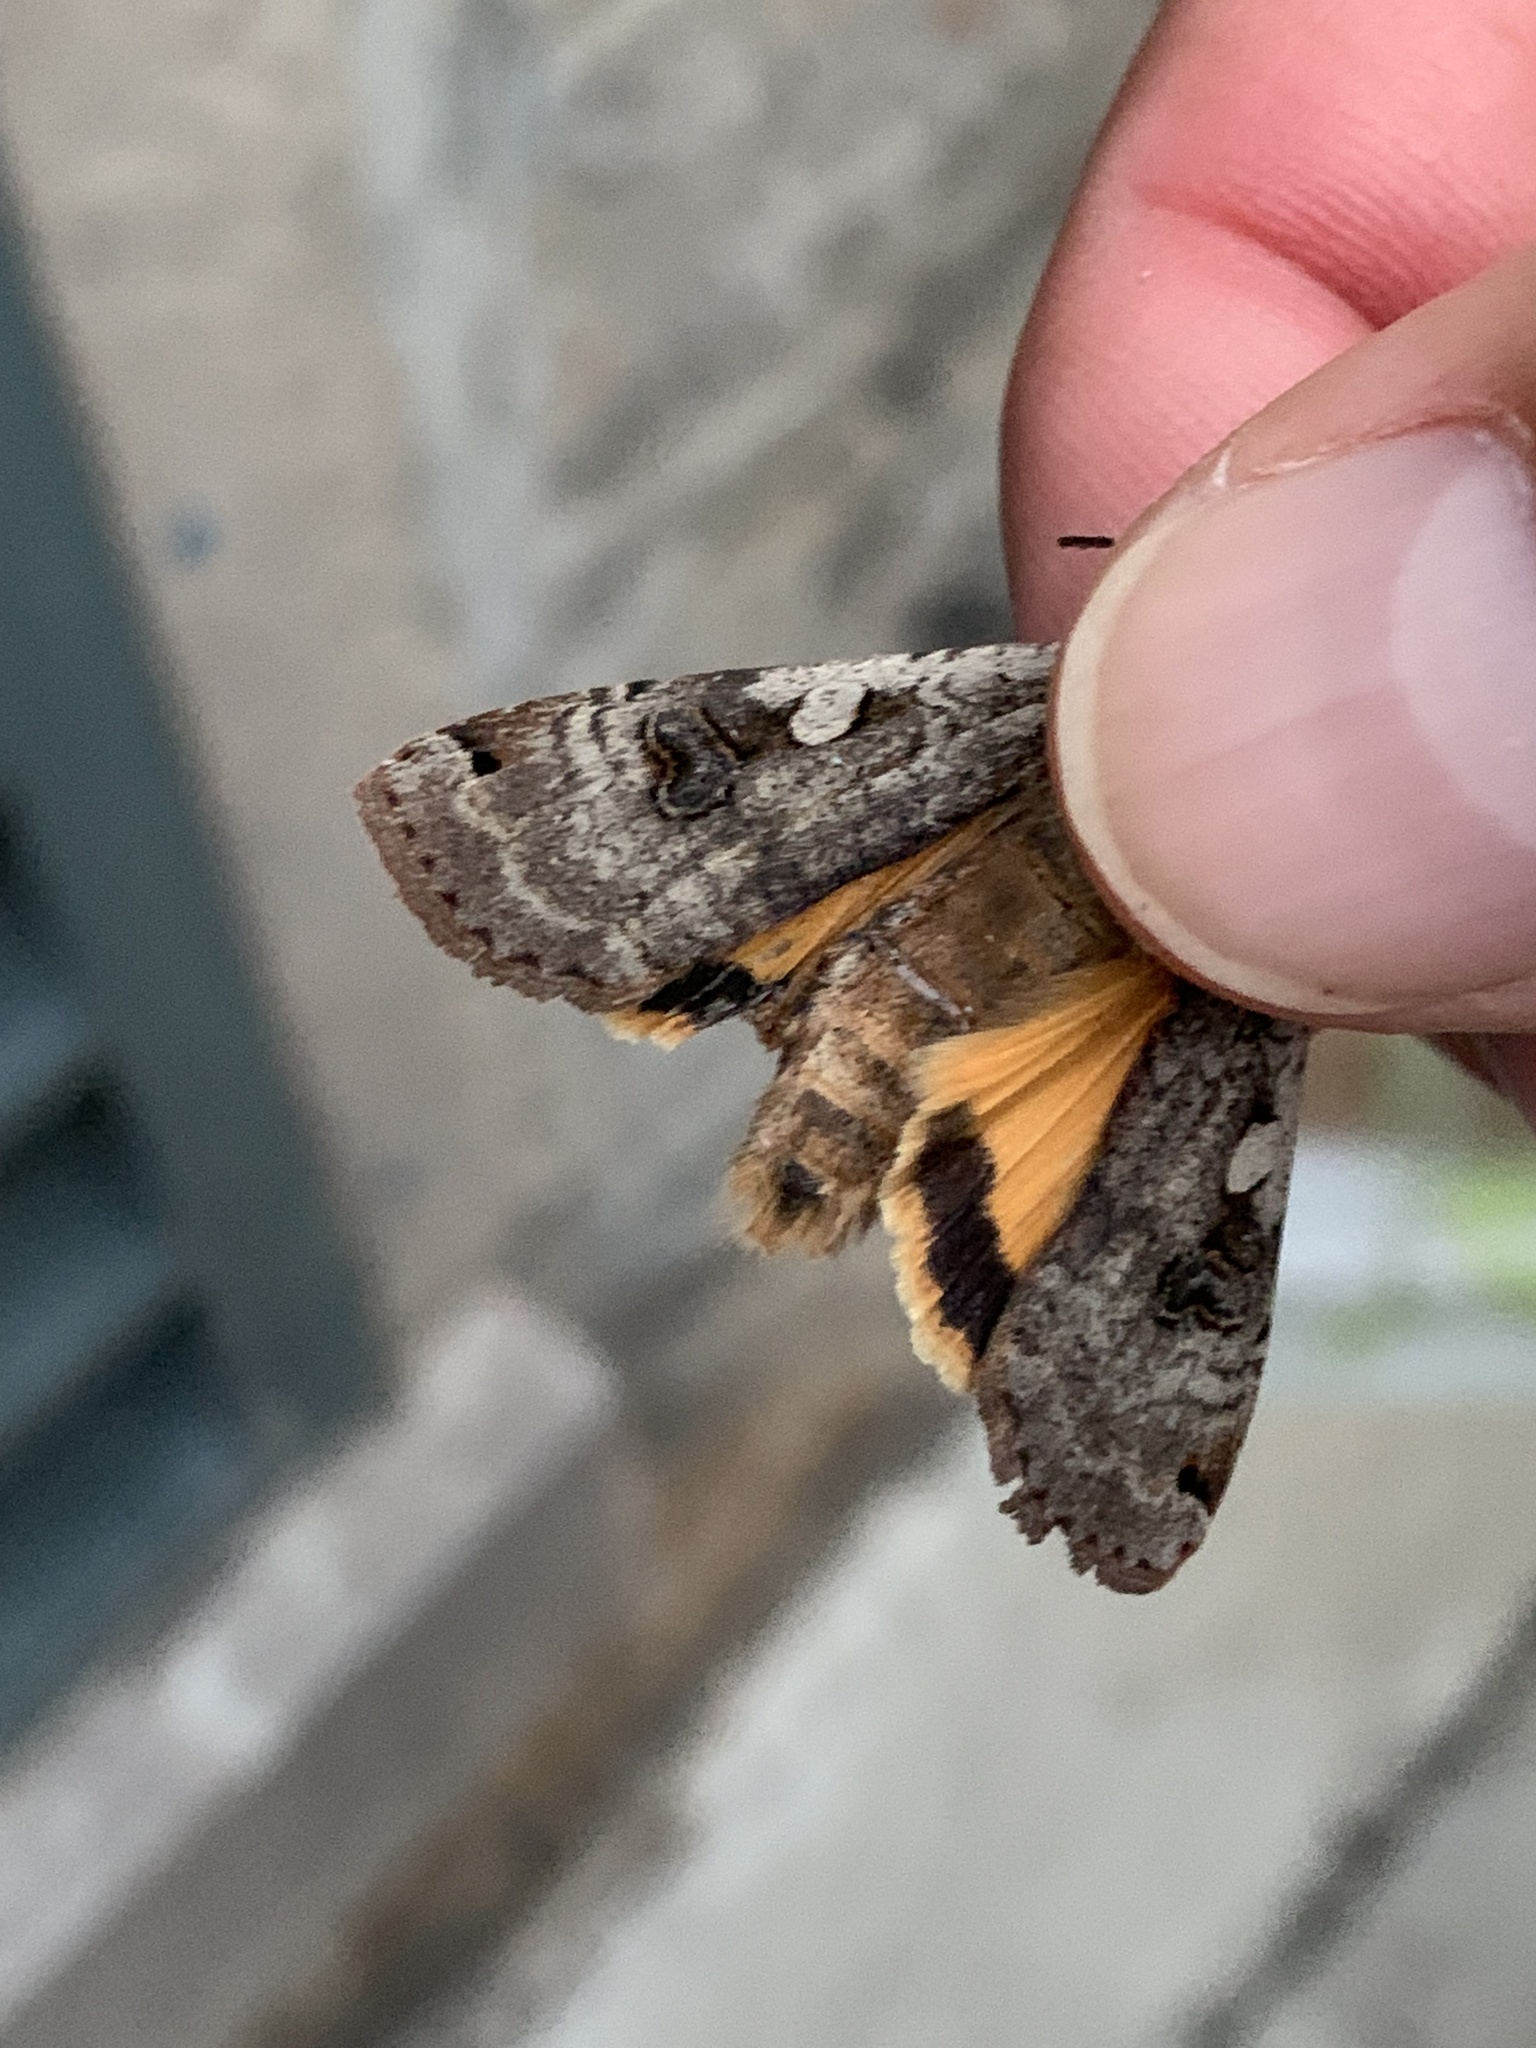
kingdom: Animalia
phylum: Arthropoda
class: Insecta
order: Lepidoptera
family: Noctuidae
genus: Noctua
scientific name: Noctua pronuba
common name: Large yellow underwing
